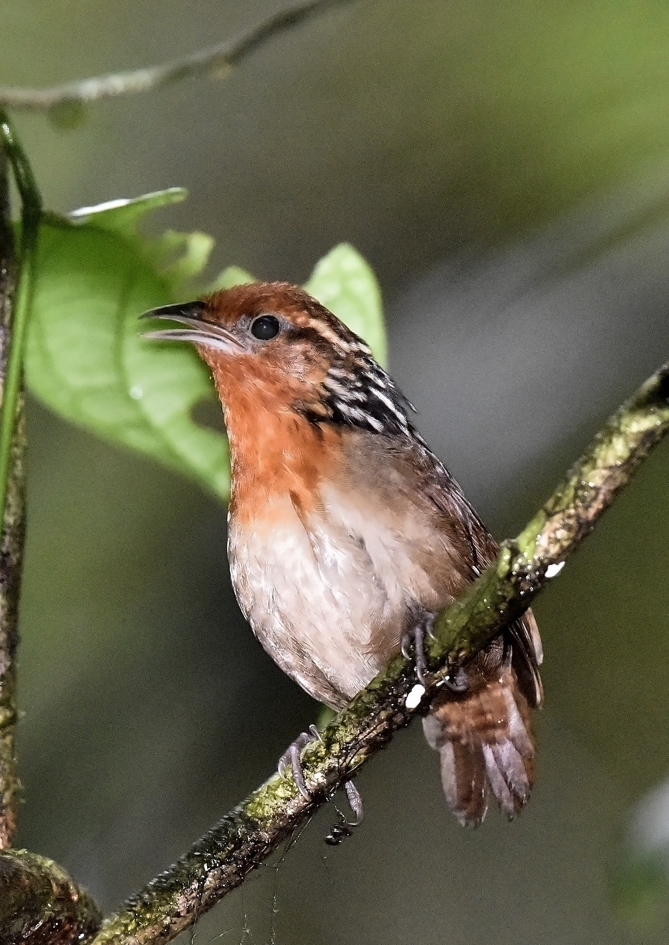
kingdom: Animalia
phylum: Chordata
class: Aves
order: Passeriformes
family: Troglodytidae
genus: Cyphorhinus
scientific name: Cyphorhinus arada
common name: Musician wren
